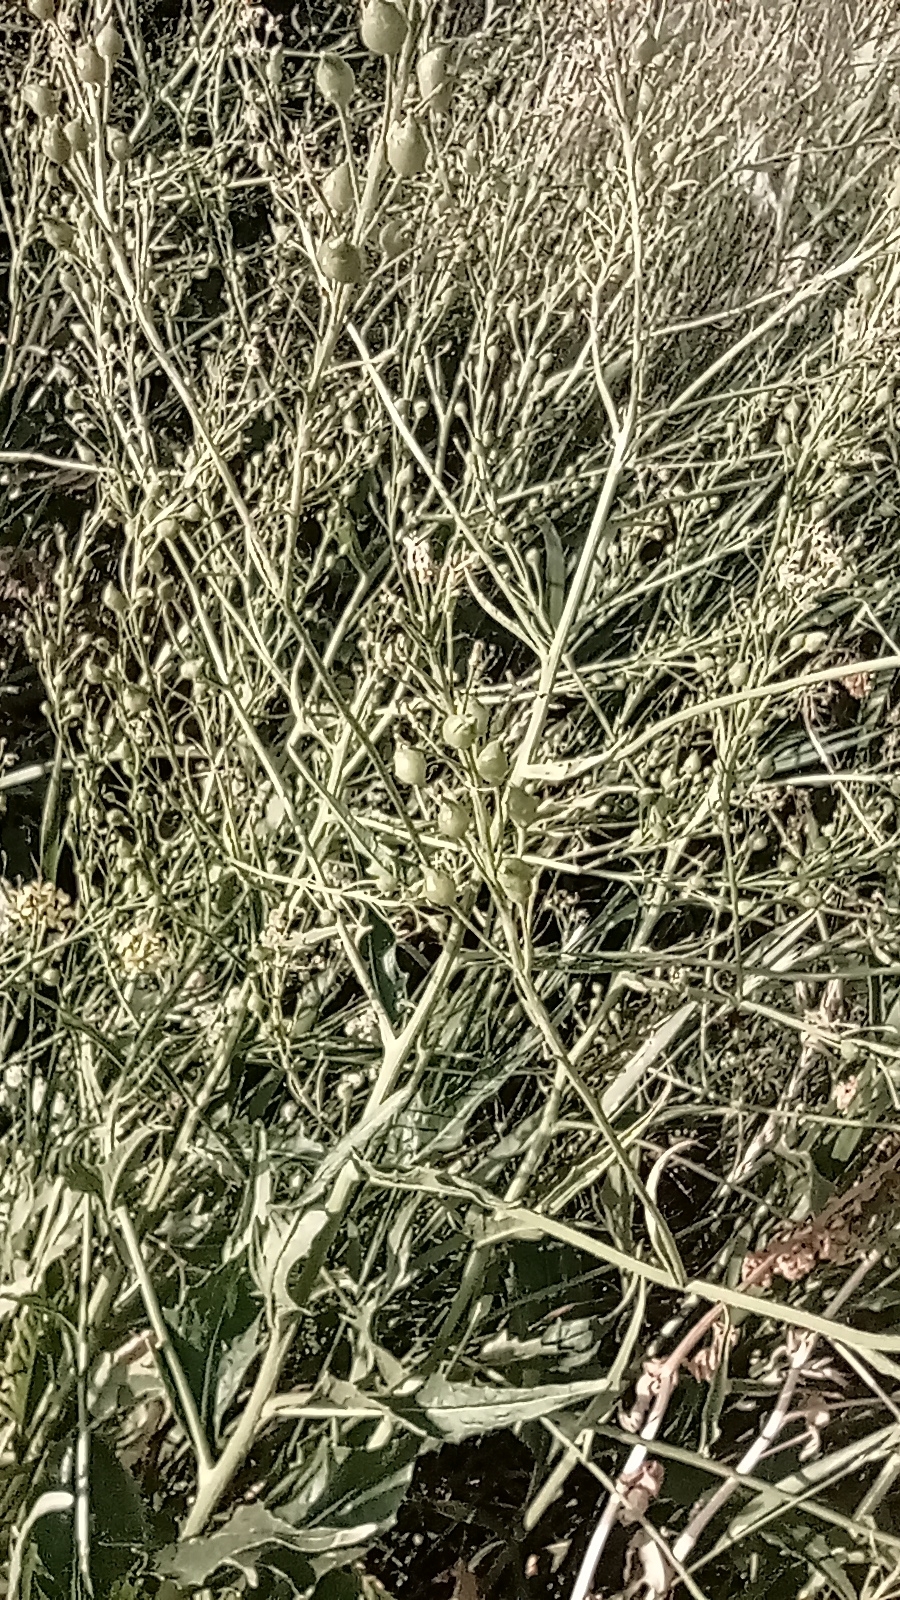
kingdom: Plantae
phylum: Tracheophyta
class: Magnoliopsida
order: Brassicales
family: Brassicaceae
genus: Bunias
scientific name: Bunias orientalis
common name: Warty-cabbage
